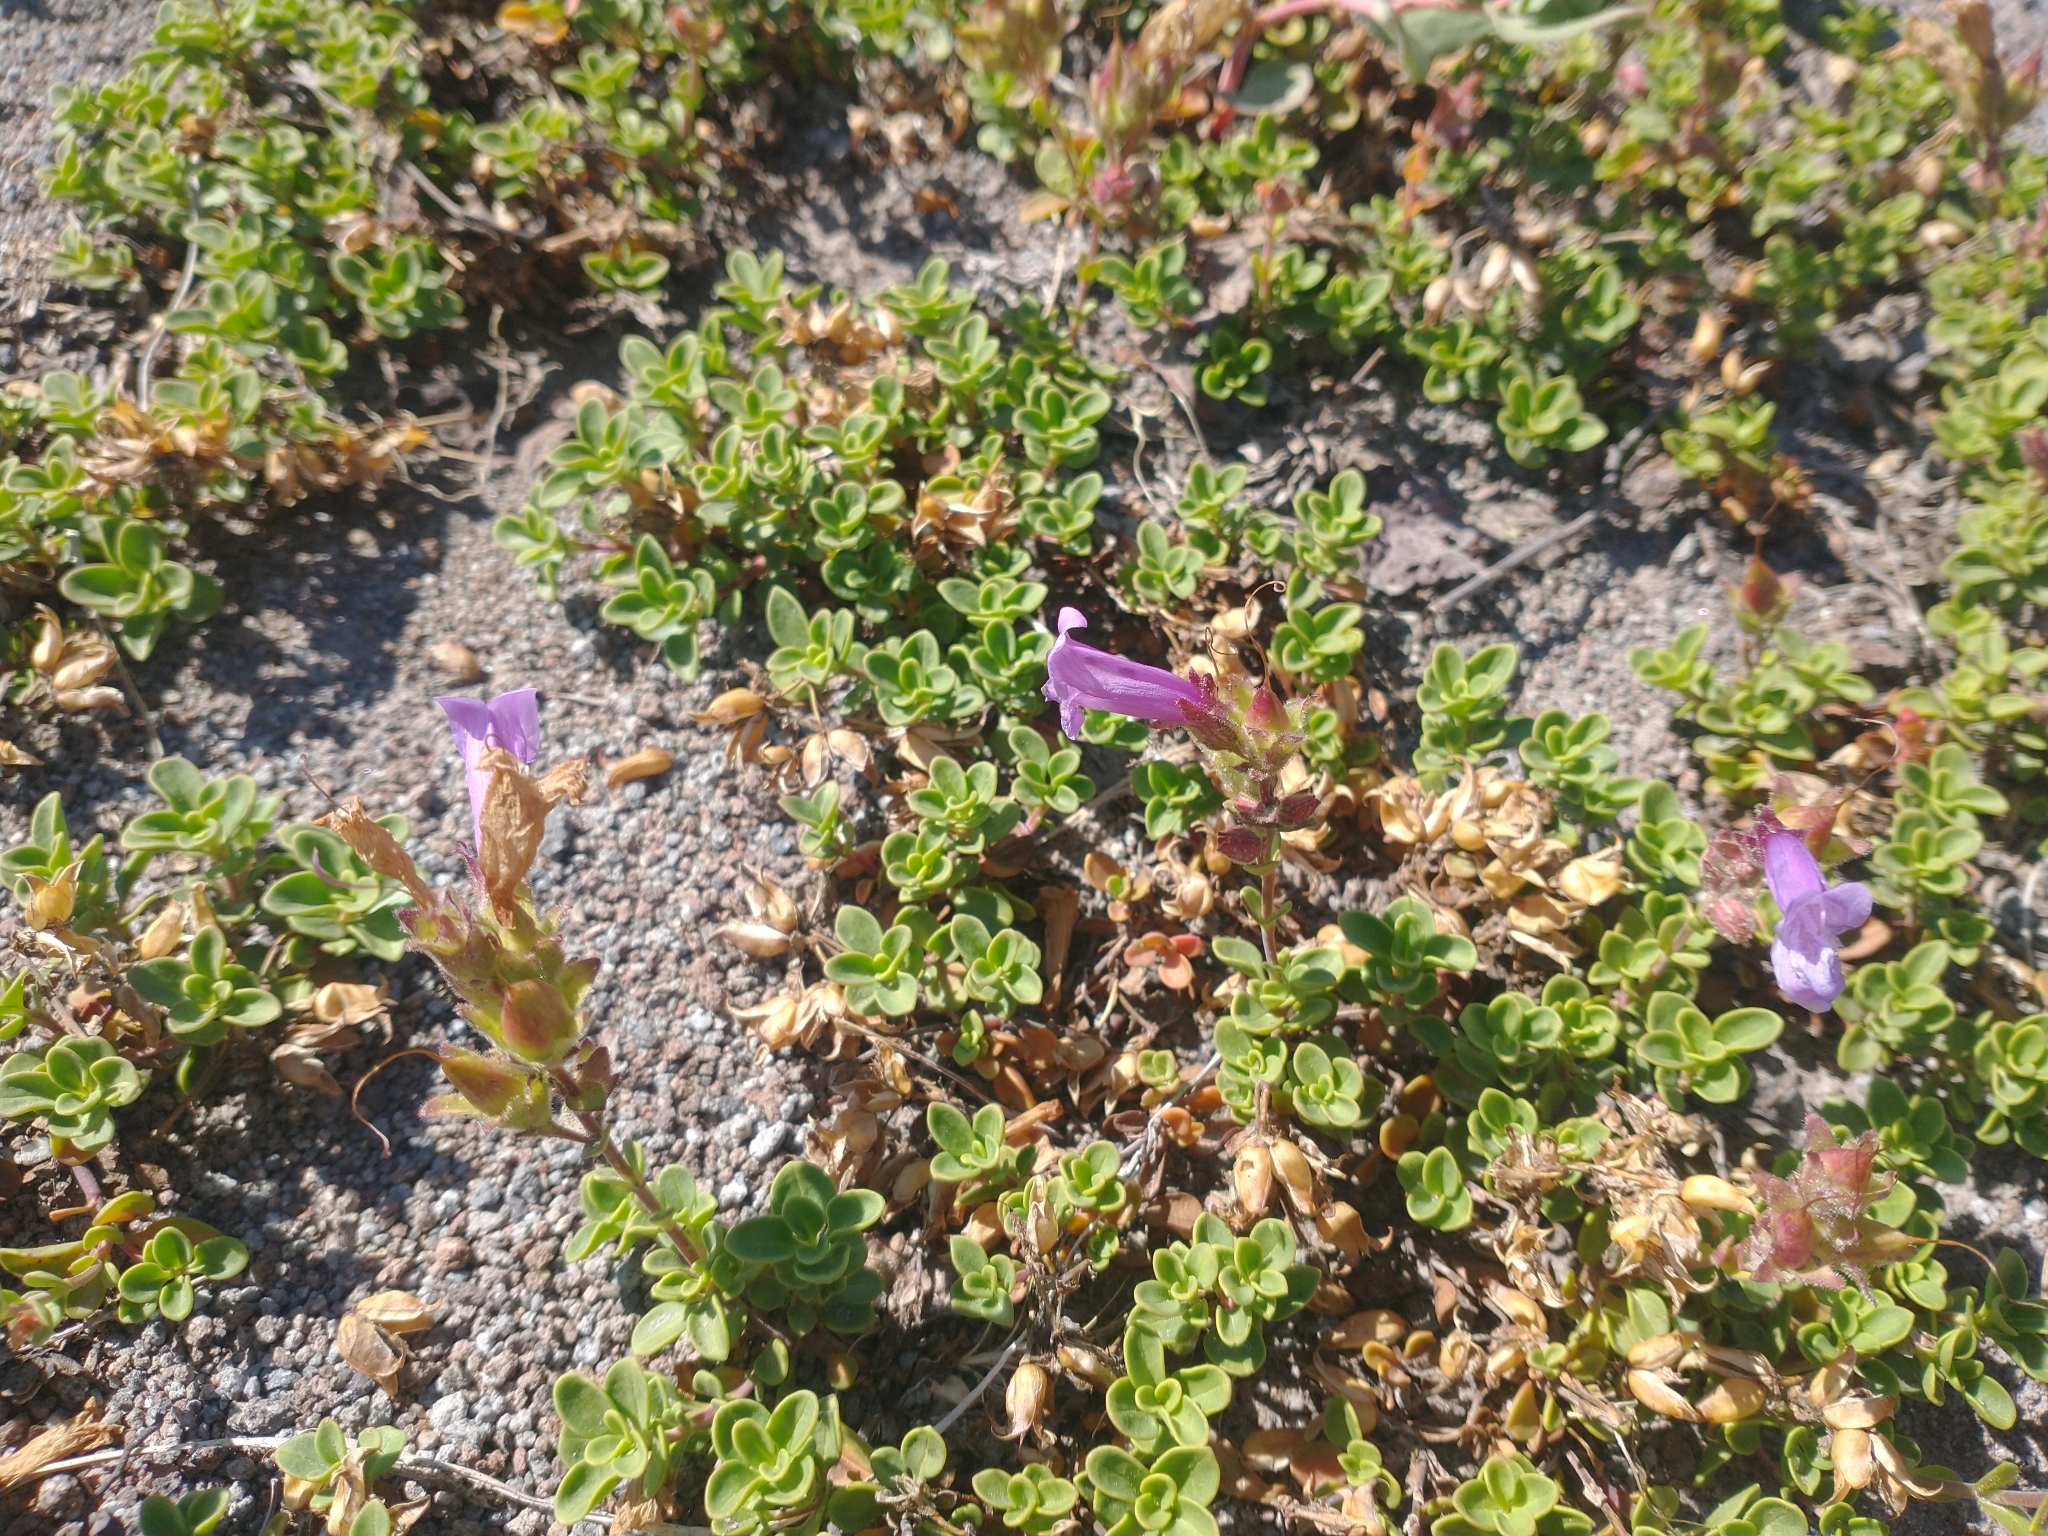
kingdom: Plantae
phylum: Tracheophyta
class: Magnoliopsida
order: Lamiales
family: Plantaginaceae
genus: Penstemon
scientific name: Penstemon davidsonii
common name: Davidson's penstemon
